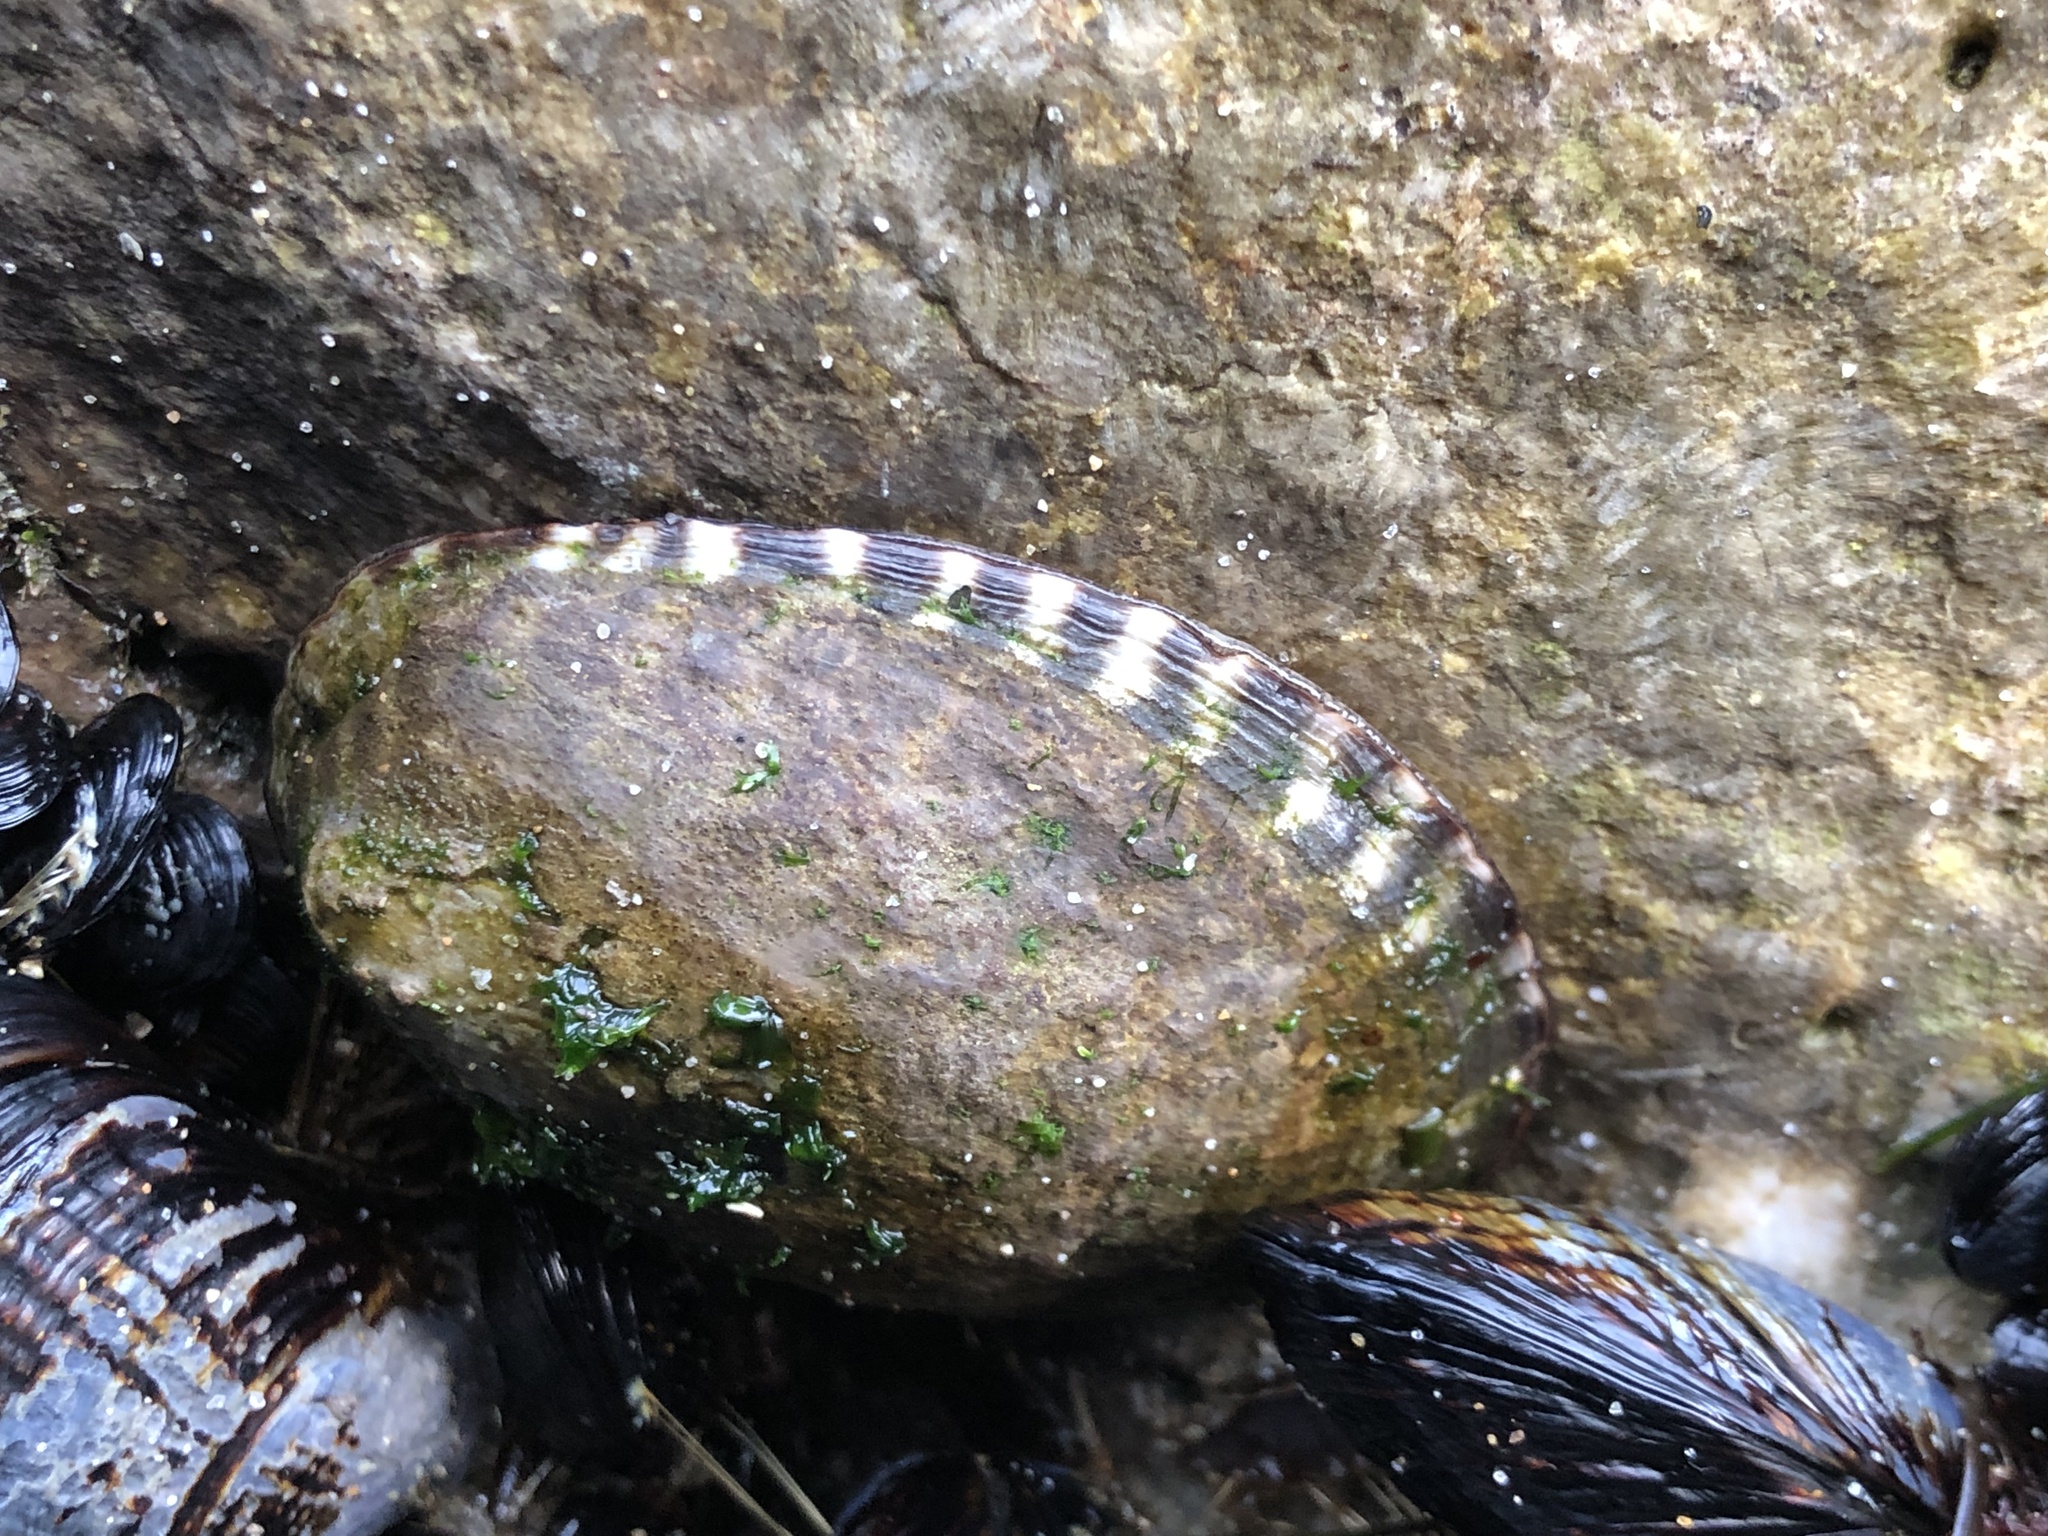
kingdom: Animalia
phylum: Mollusca
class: Gastropoda
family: Lottiidae
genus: Lottia
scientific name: Lottia gigantea
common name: Owl limpet
